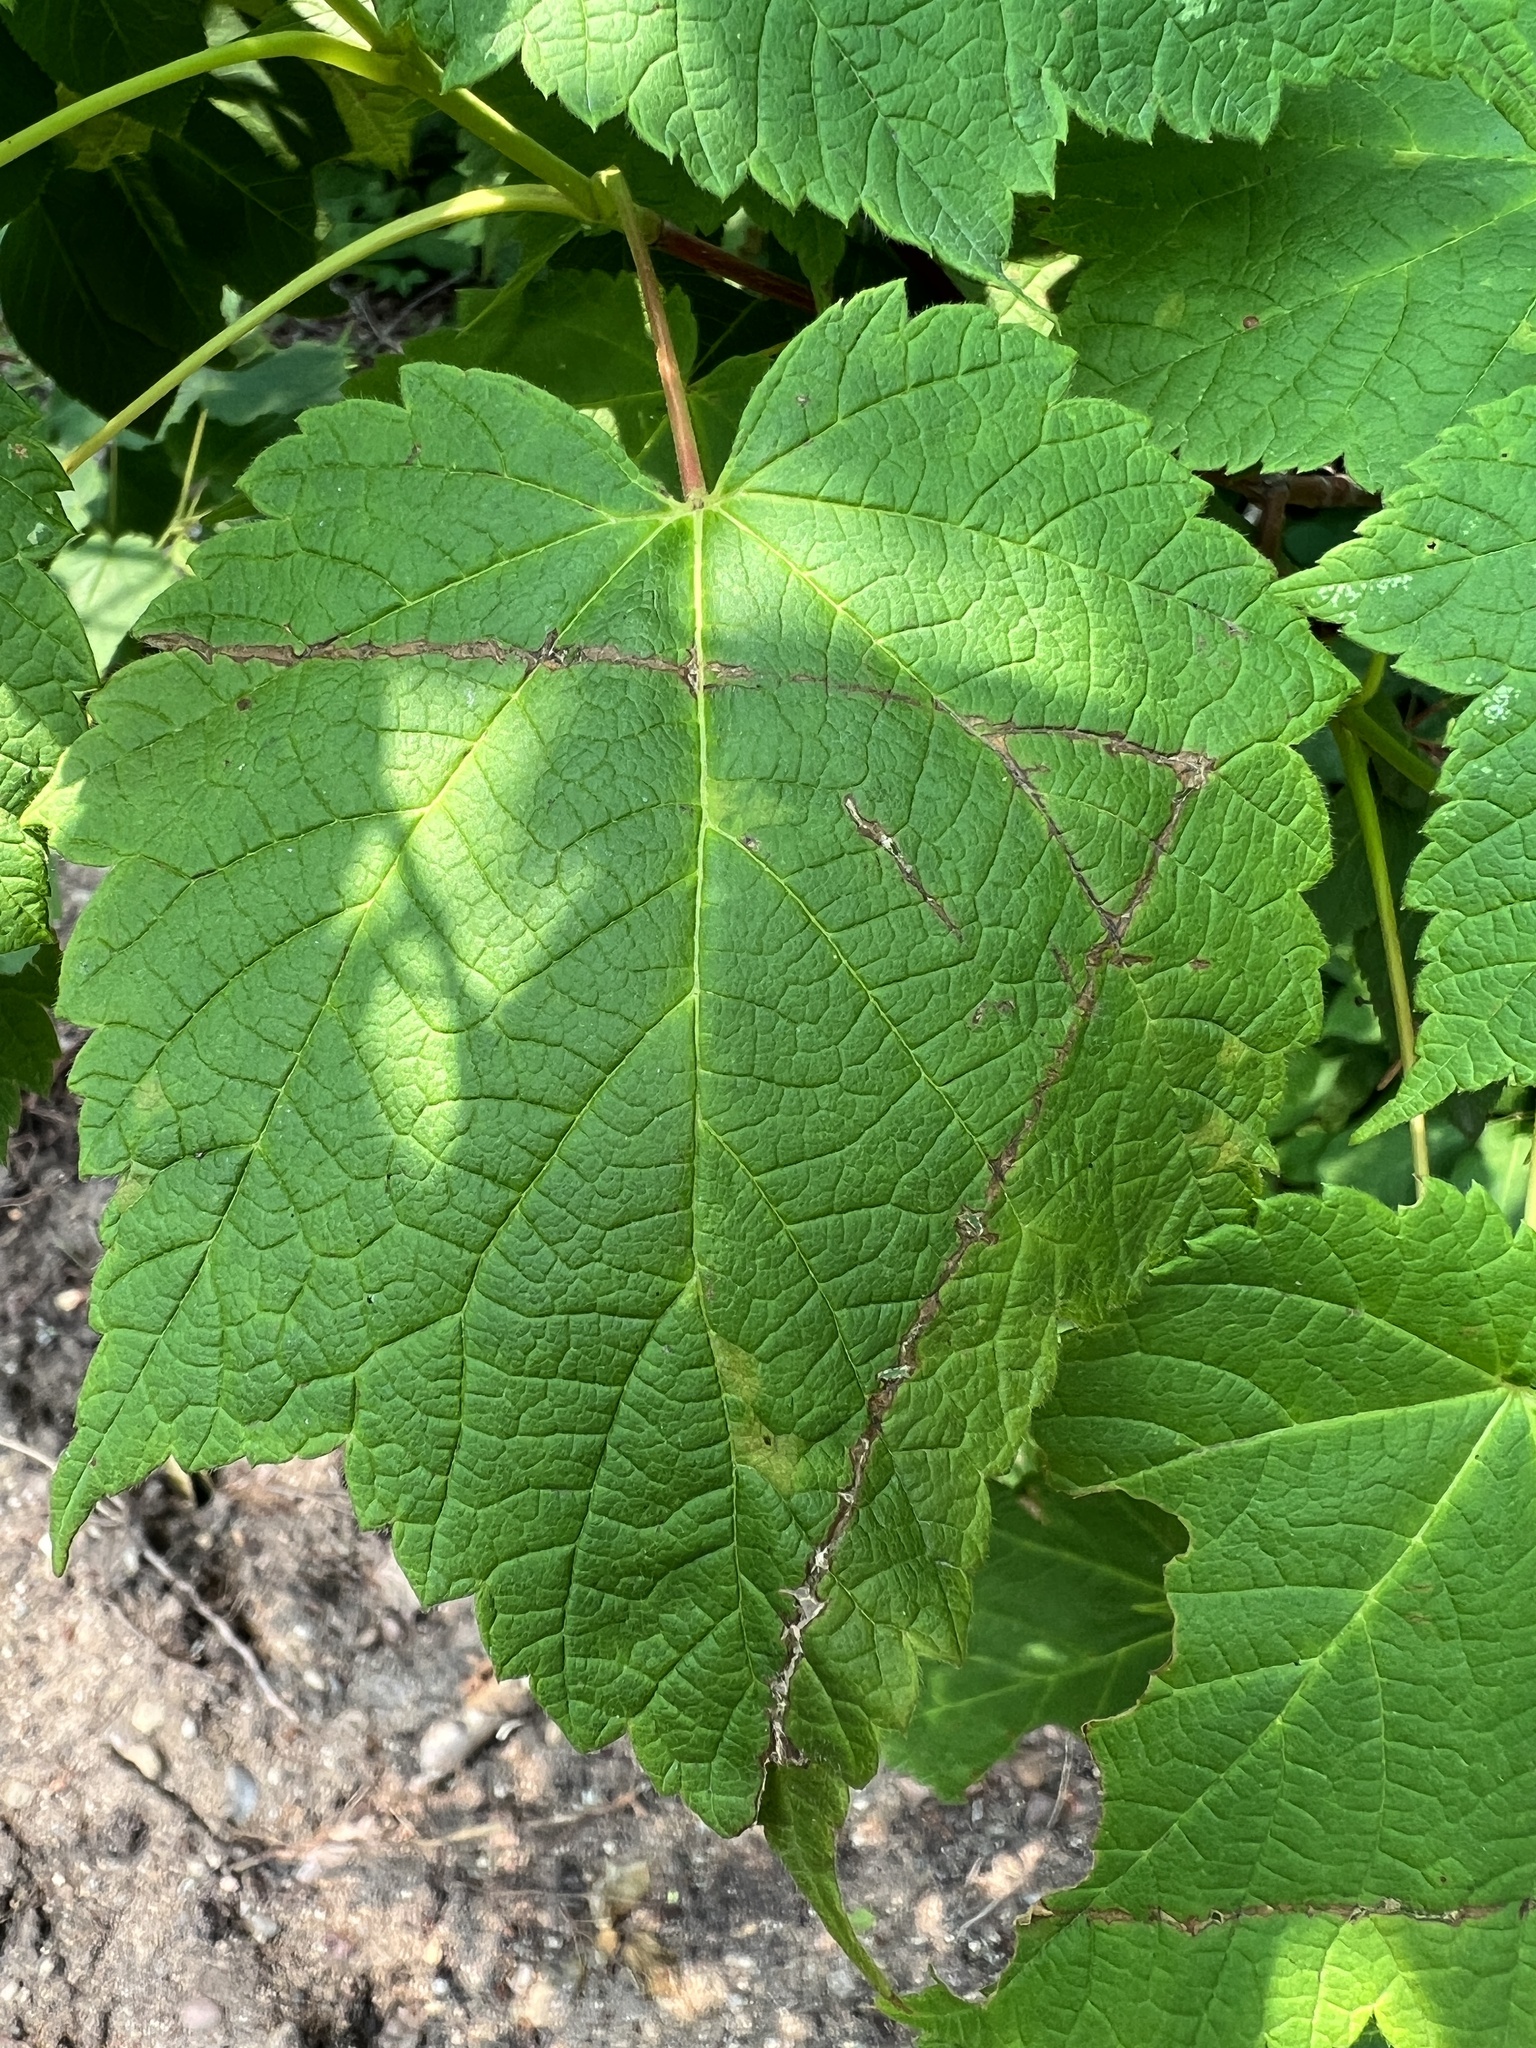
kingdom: Plantae
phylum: Tracheophyta
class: Magnoliopsida
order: Sapindales
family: Sapindaceae
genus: Acer
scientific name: Acer spicatum
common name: Mountain maple
